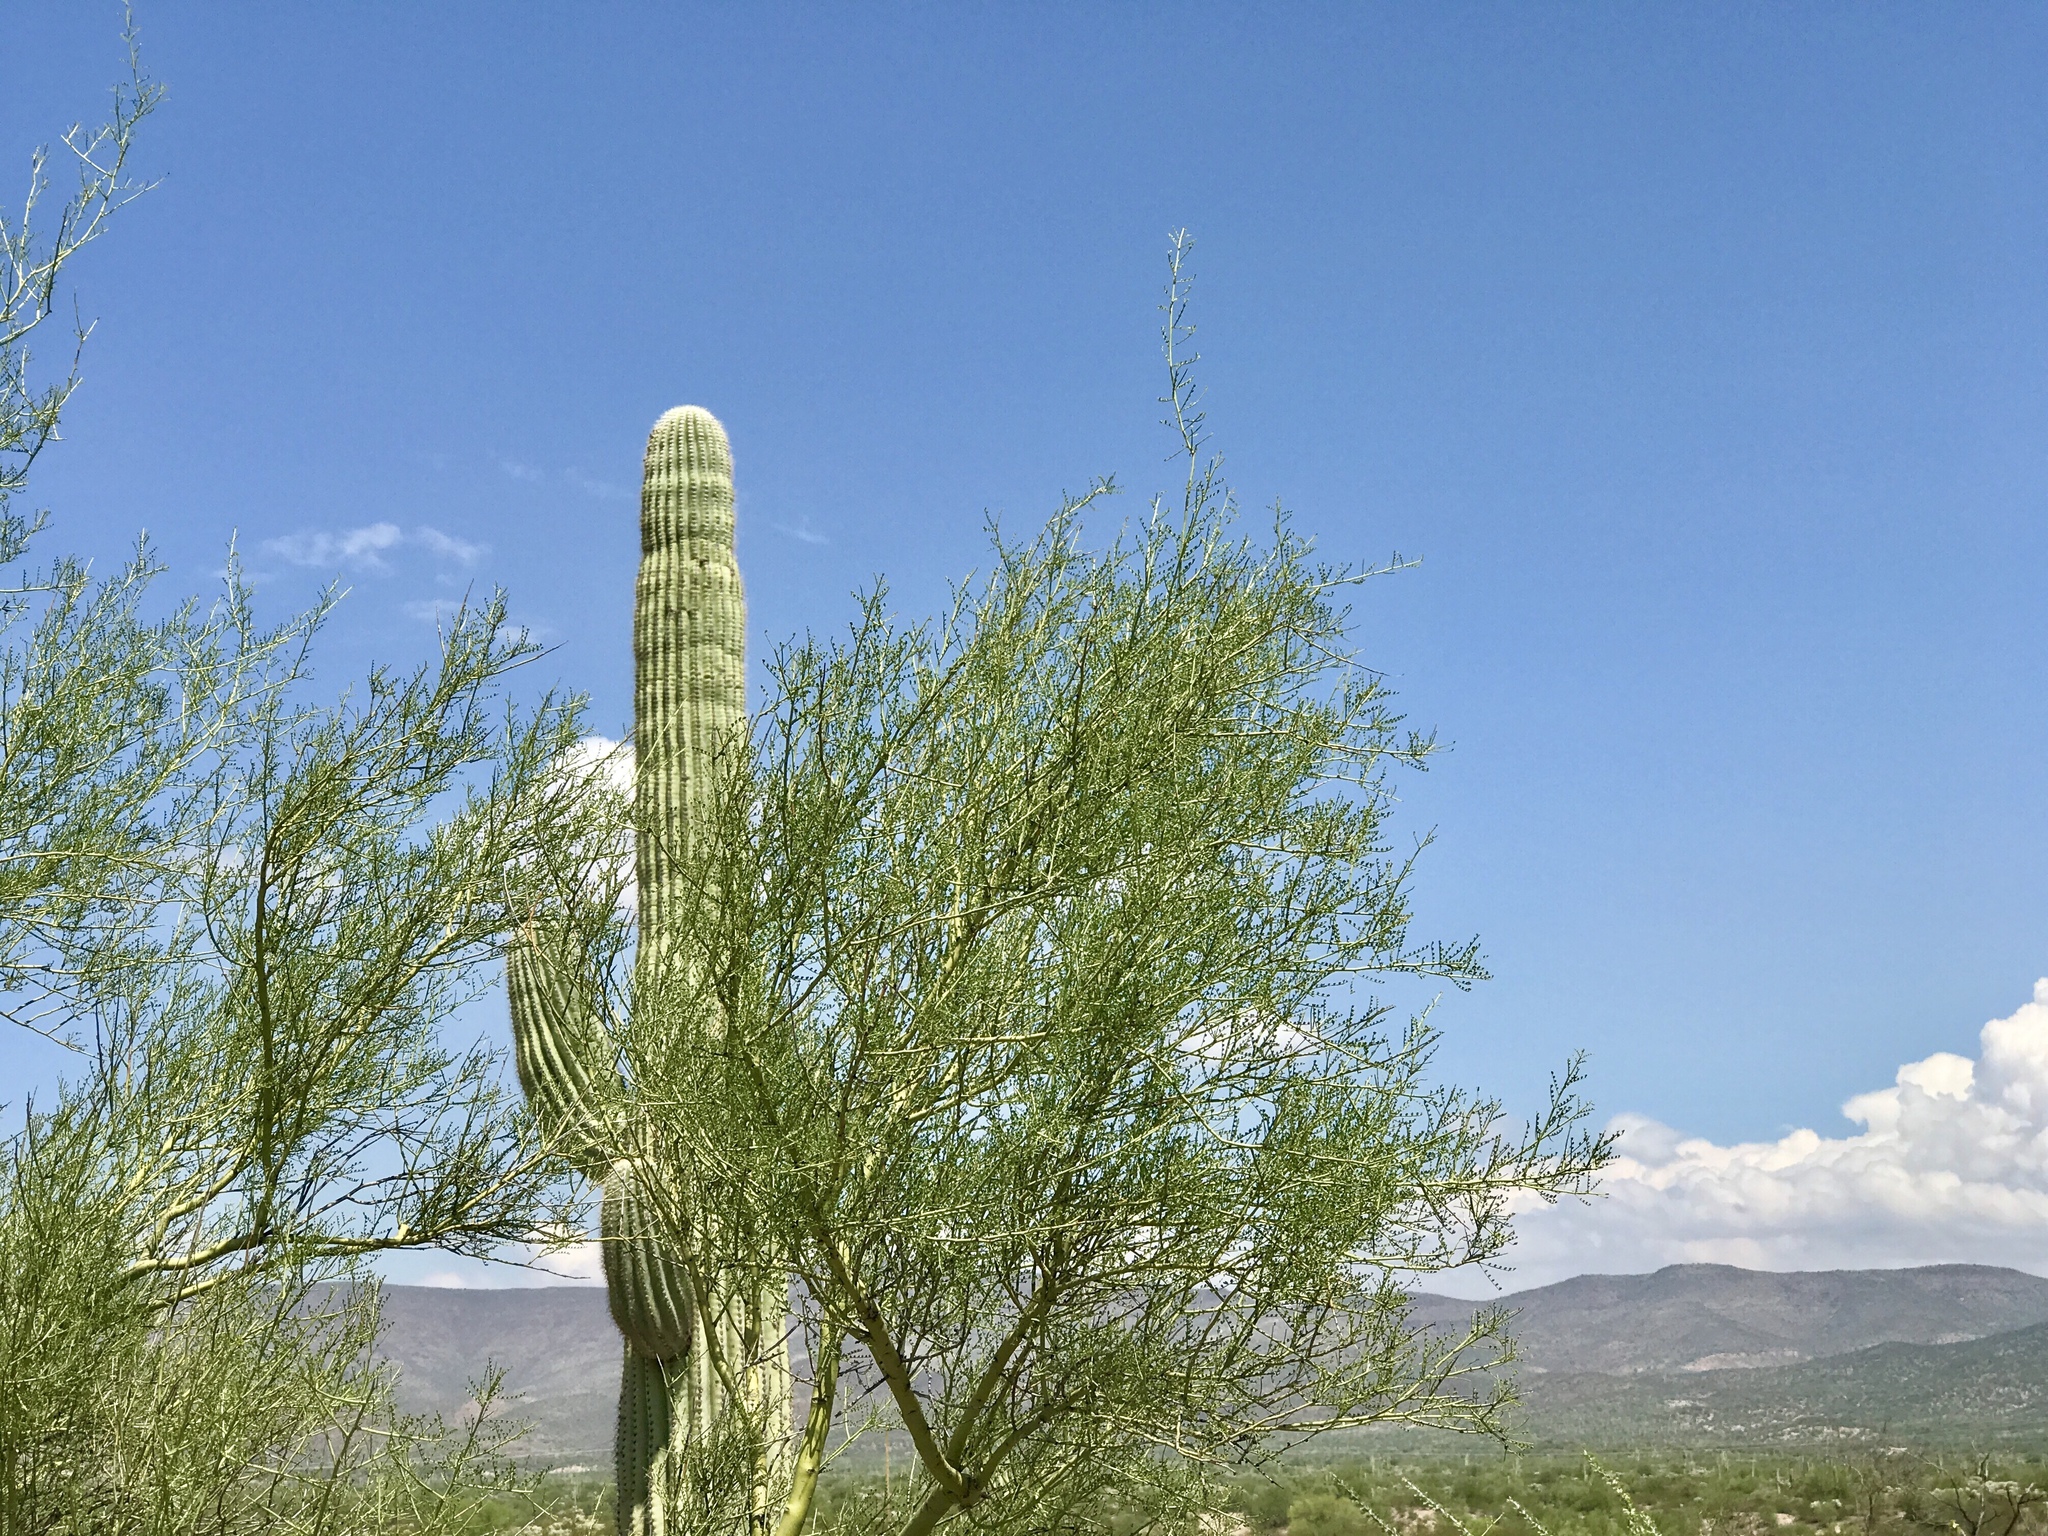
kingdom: Plantae
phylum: Tracheophyta
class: Magnoliopsida
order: Fabales
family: Fabaceae
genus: Parkinsonia
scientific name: Parkinsonia microphylla
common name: Yellow paloverde
